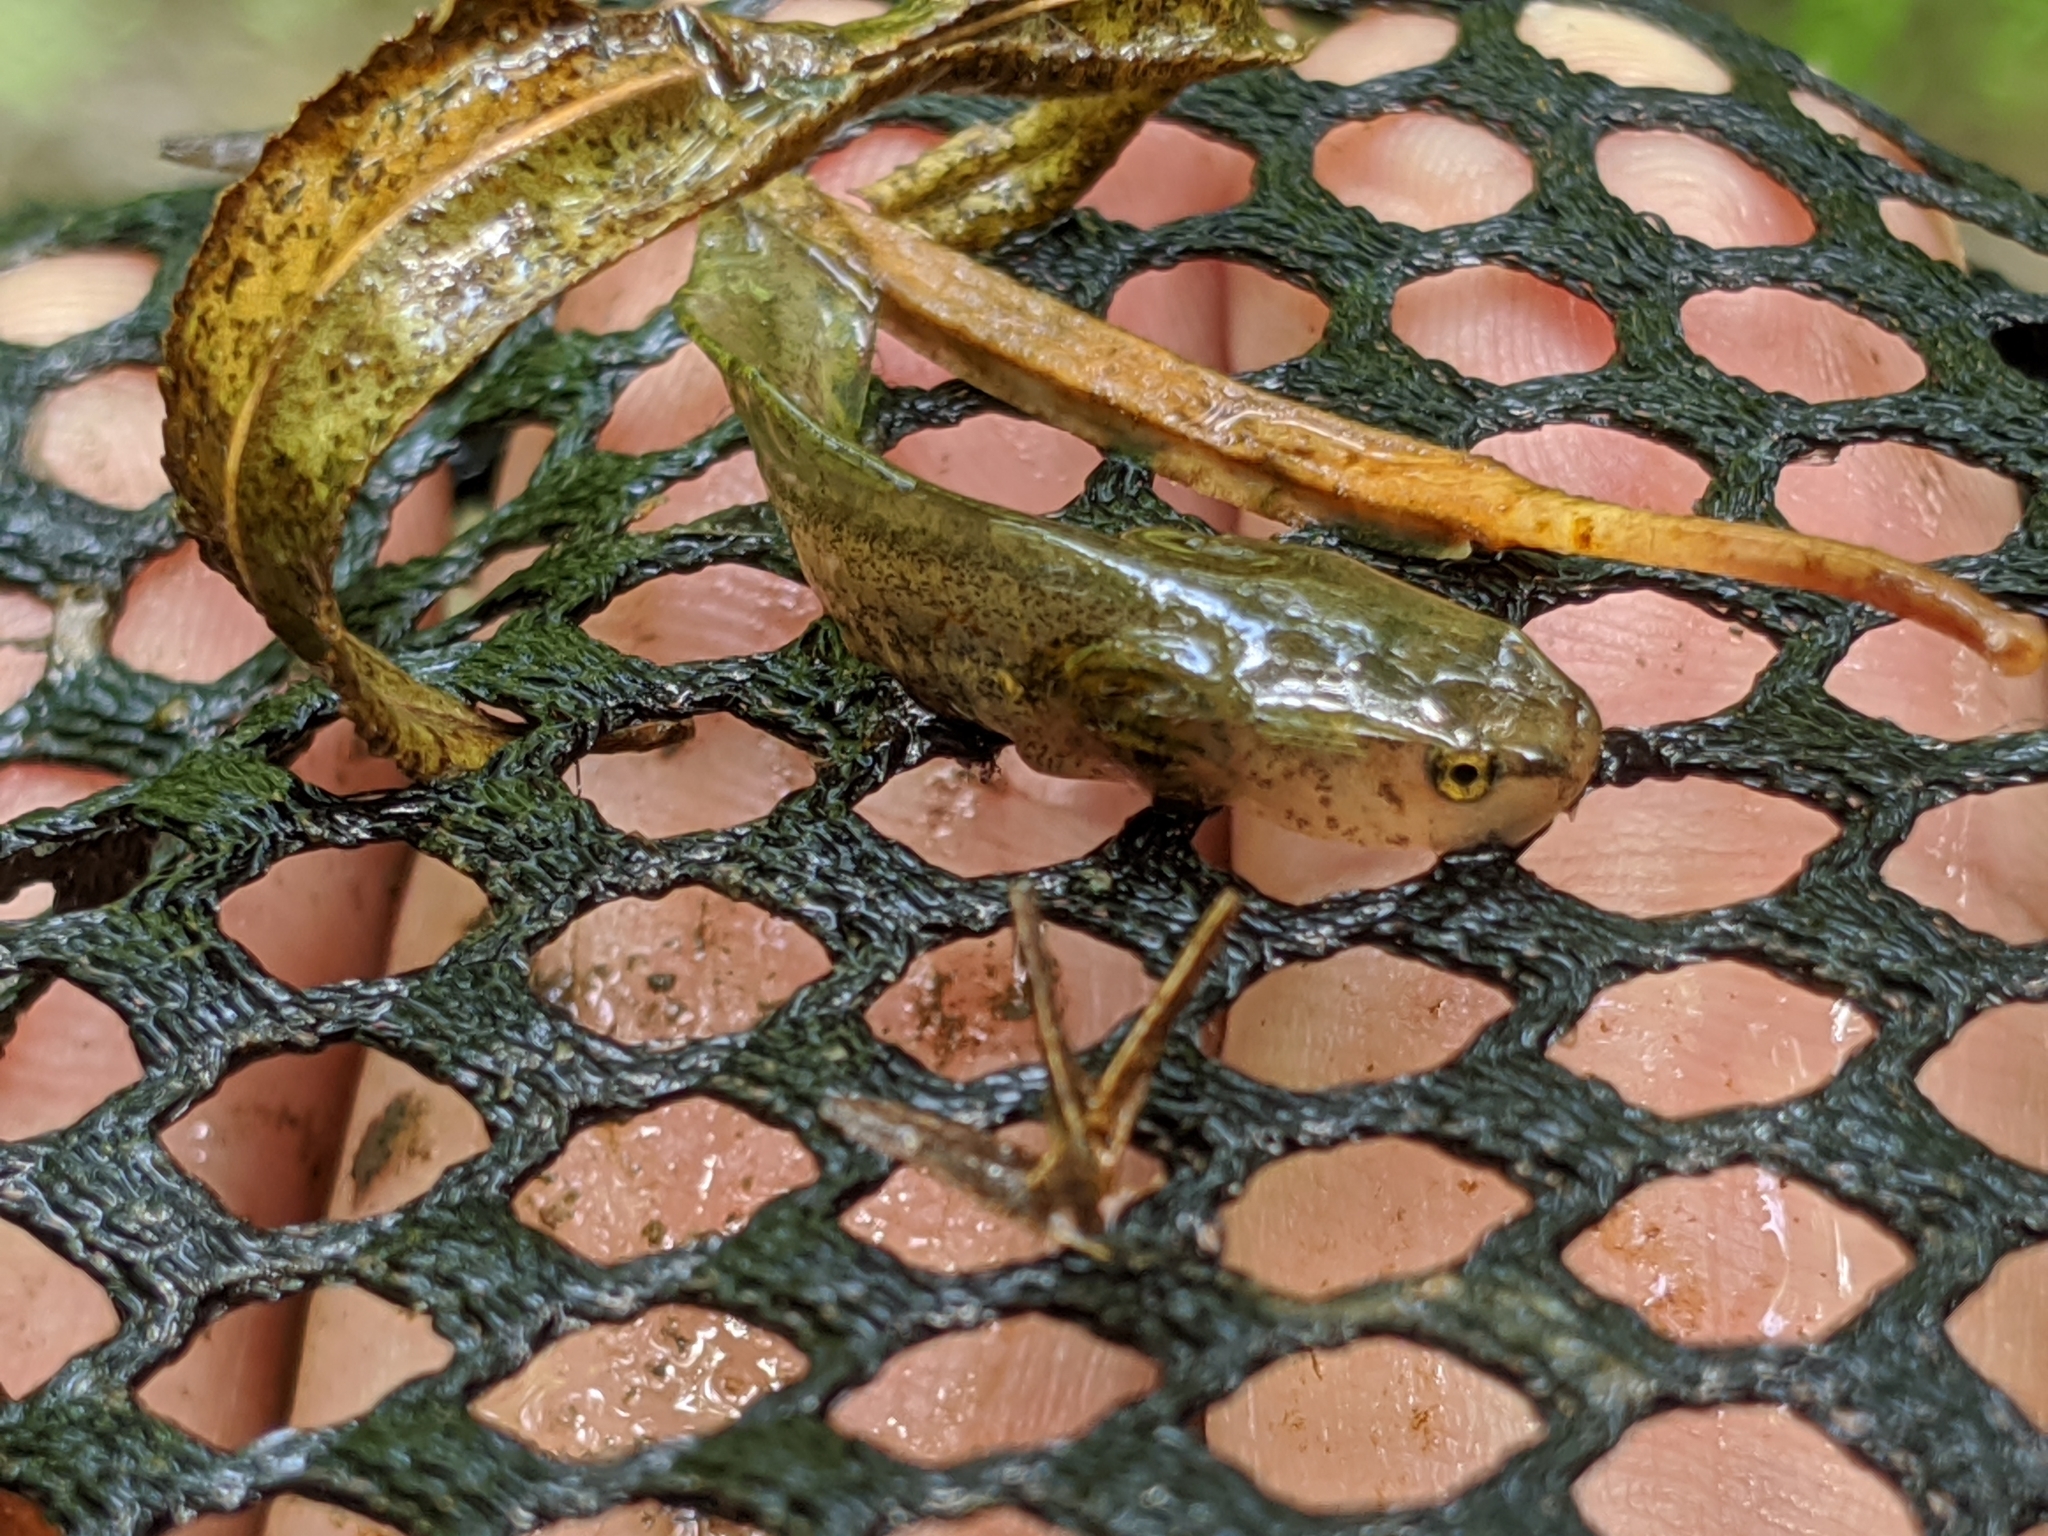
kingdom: Animalia
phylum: Chordata
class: Amphibia
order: Caudata
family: Ambystomatidae
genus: Ambystoma
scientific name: Ambystoma maculatum
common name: Spotted salamander
